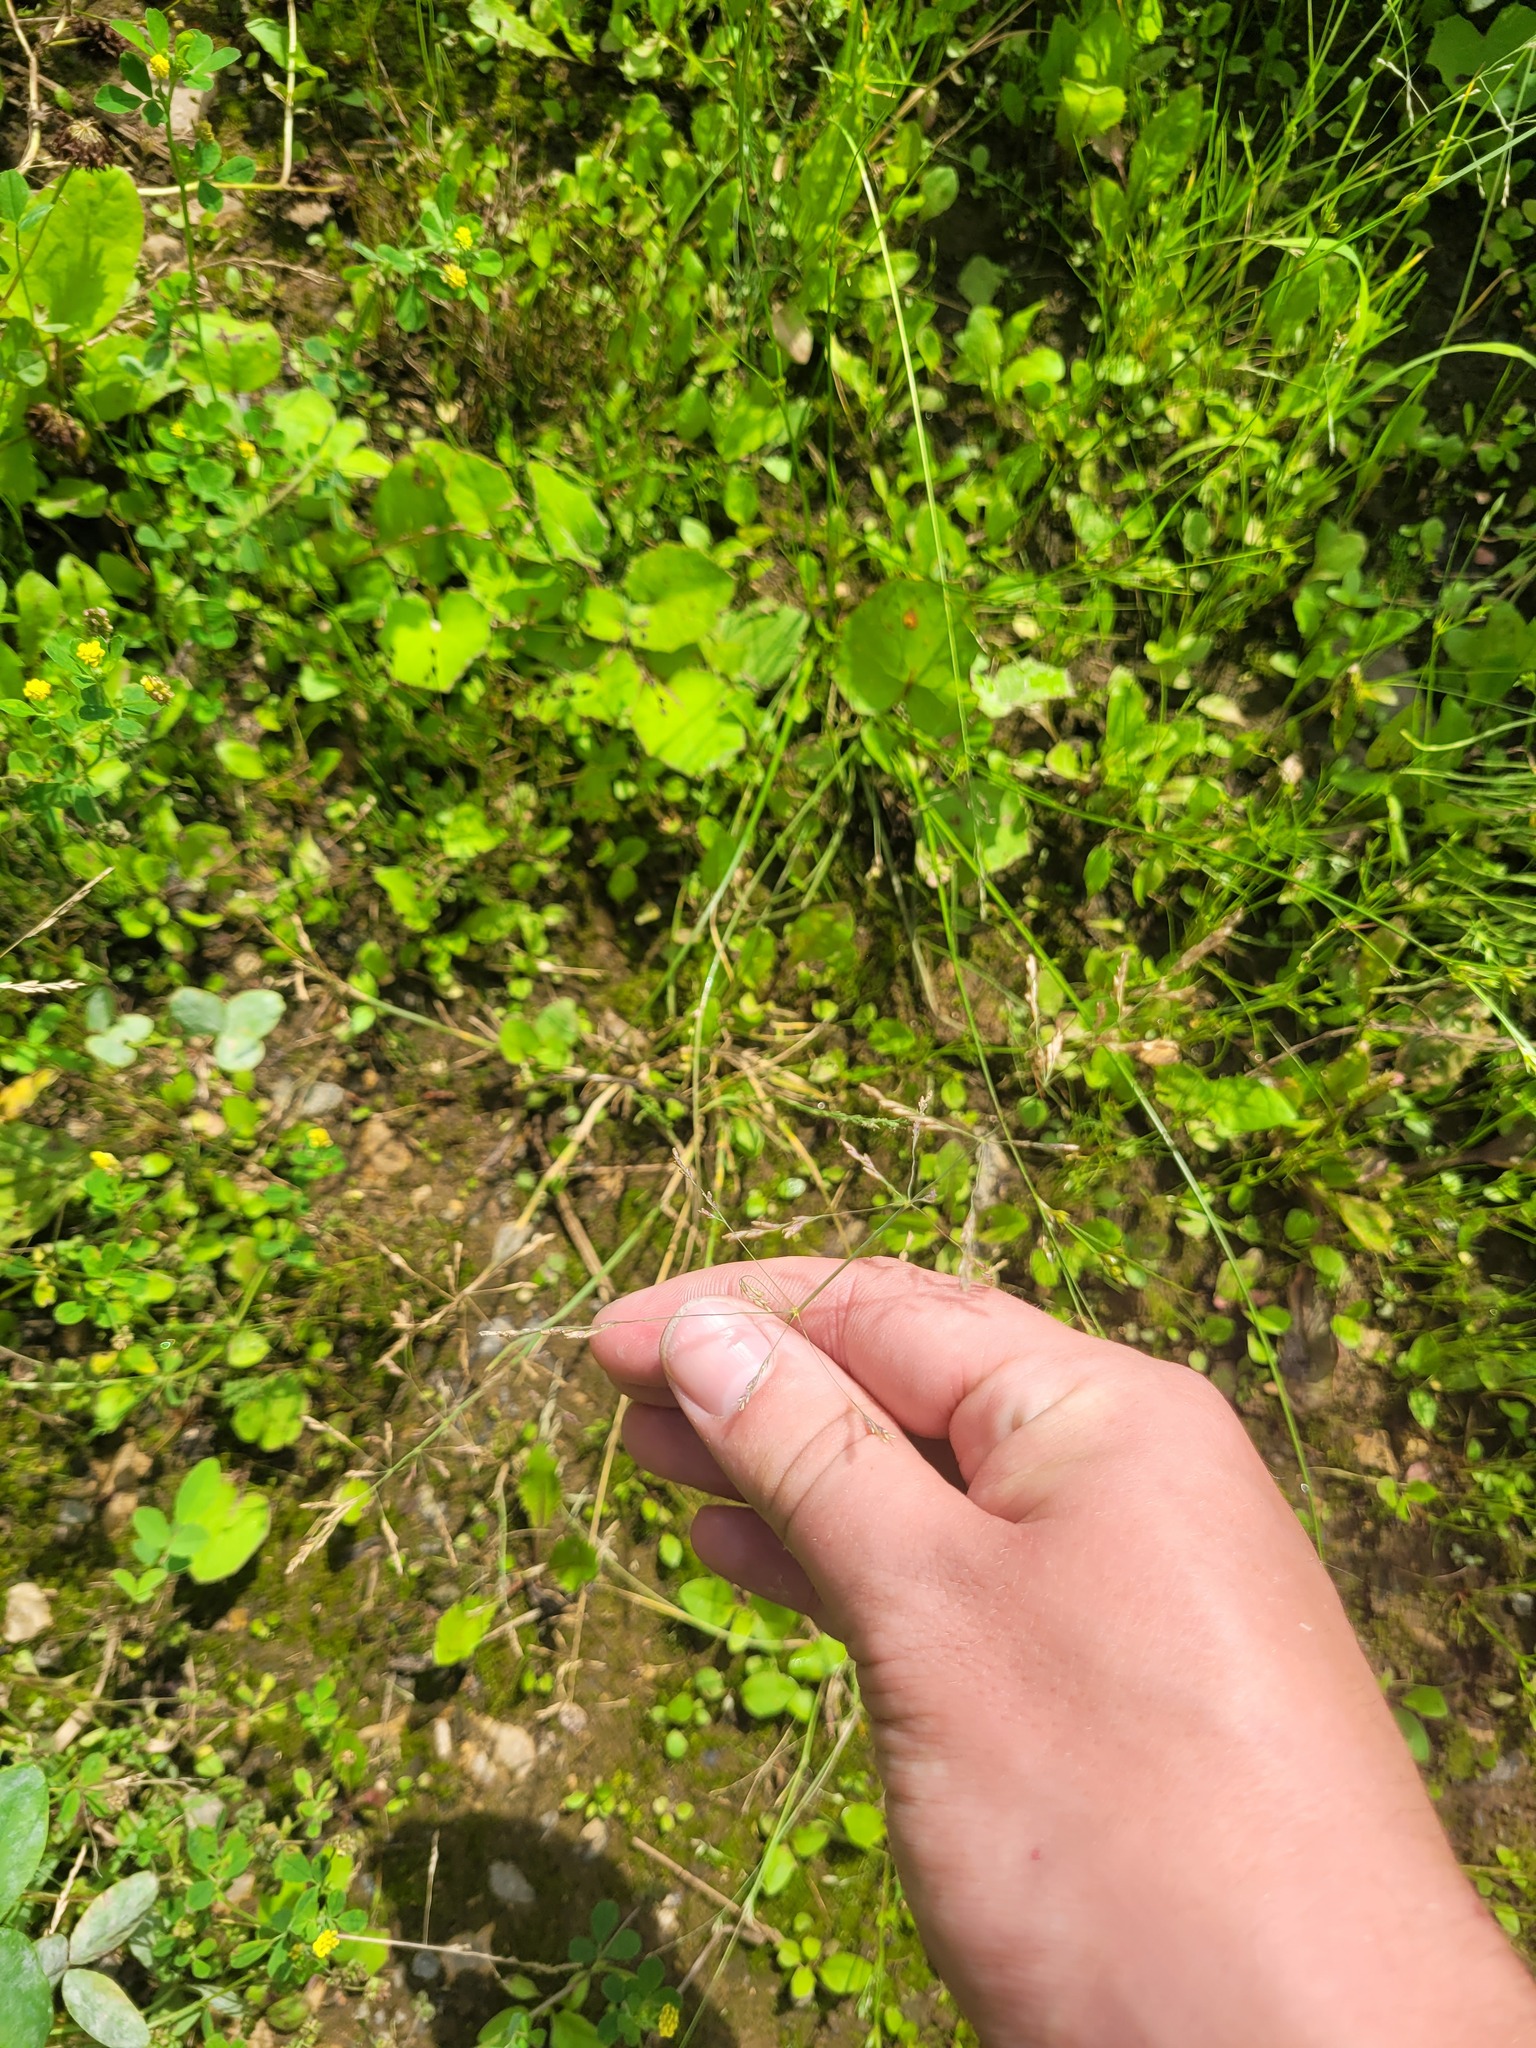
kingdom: Plantae
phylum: Tracheophyta
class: Liliopsida
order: Poales
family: Poaceae
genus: Puccinellia
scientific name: Puccinellia distans
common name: Weeping alkaligrass
